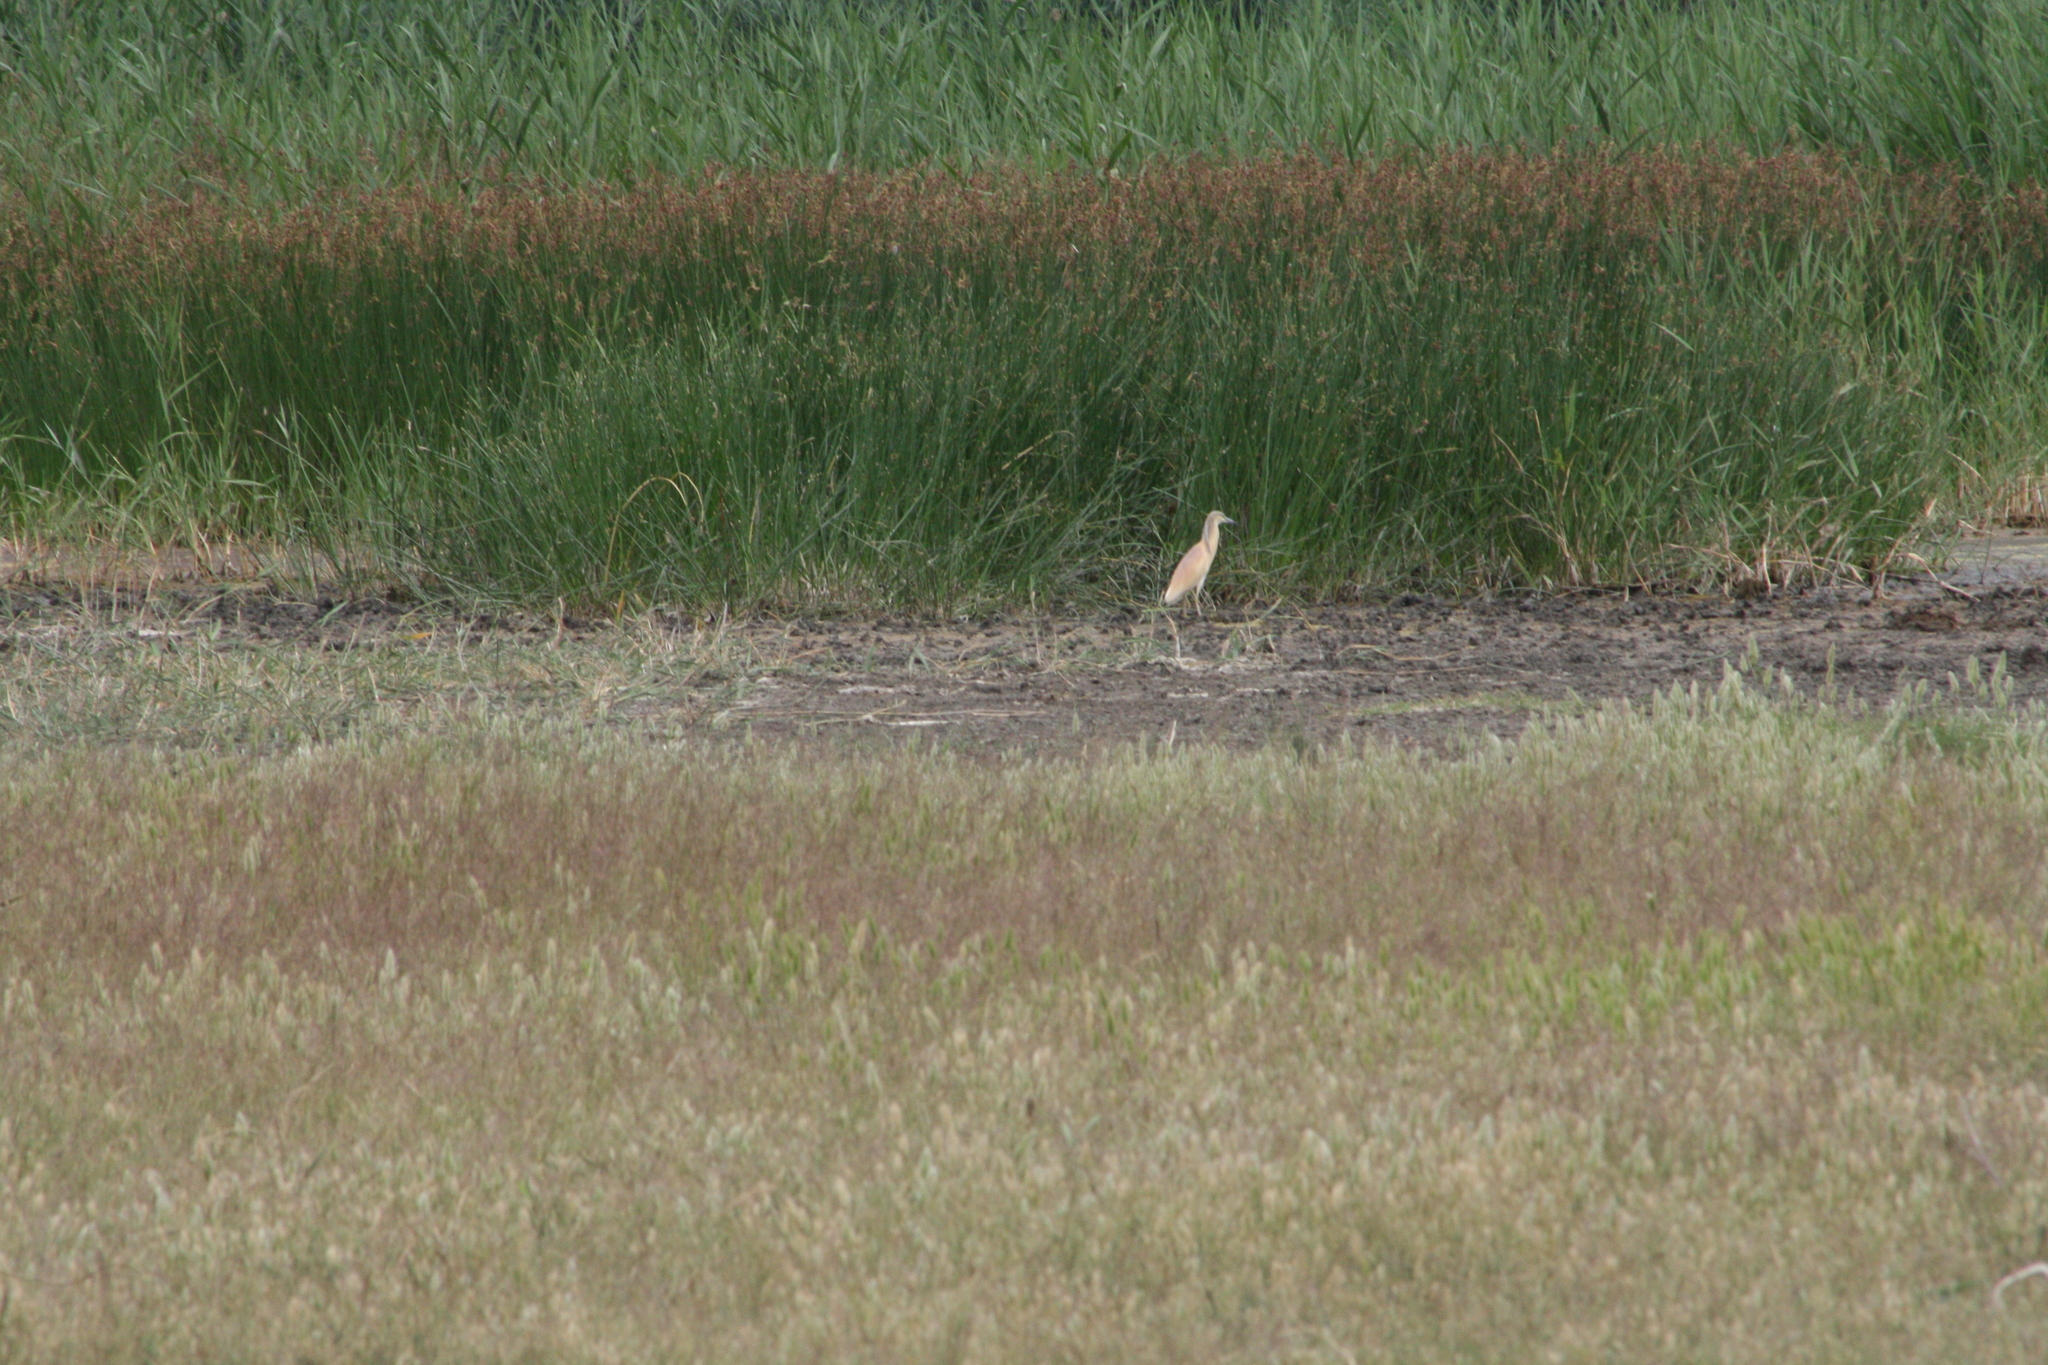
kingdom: Animalia
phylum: Chordata
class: Aves
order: Pelecaniformes
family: Ardeidae
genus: Ardeola
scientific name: Ardeola ralloides
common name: Squacco heron
